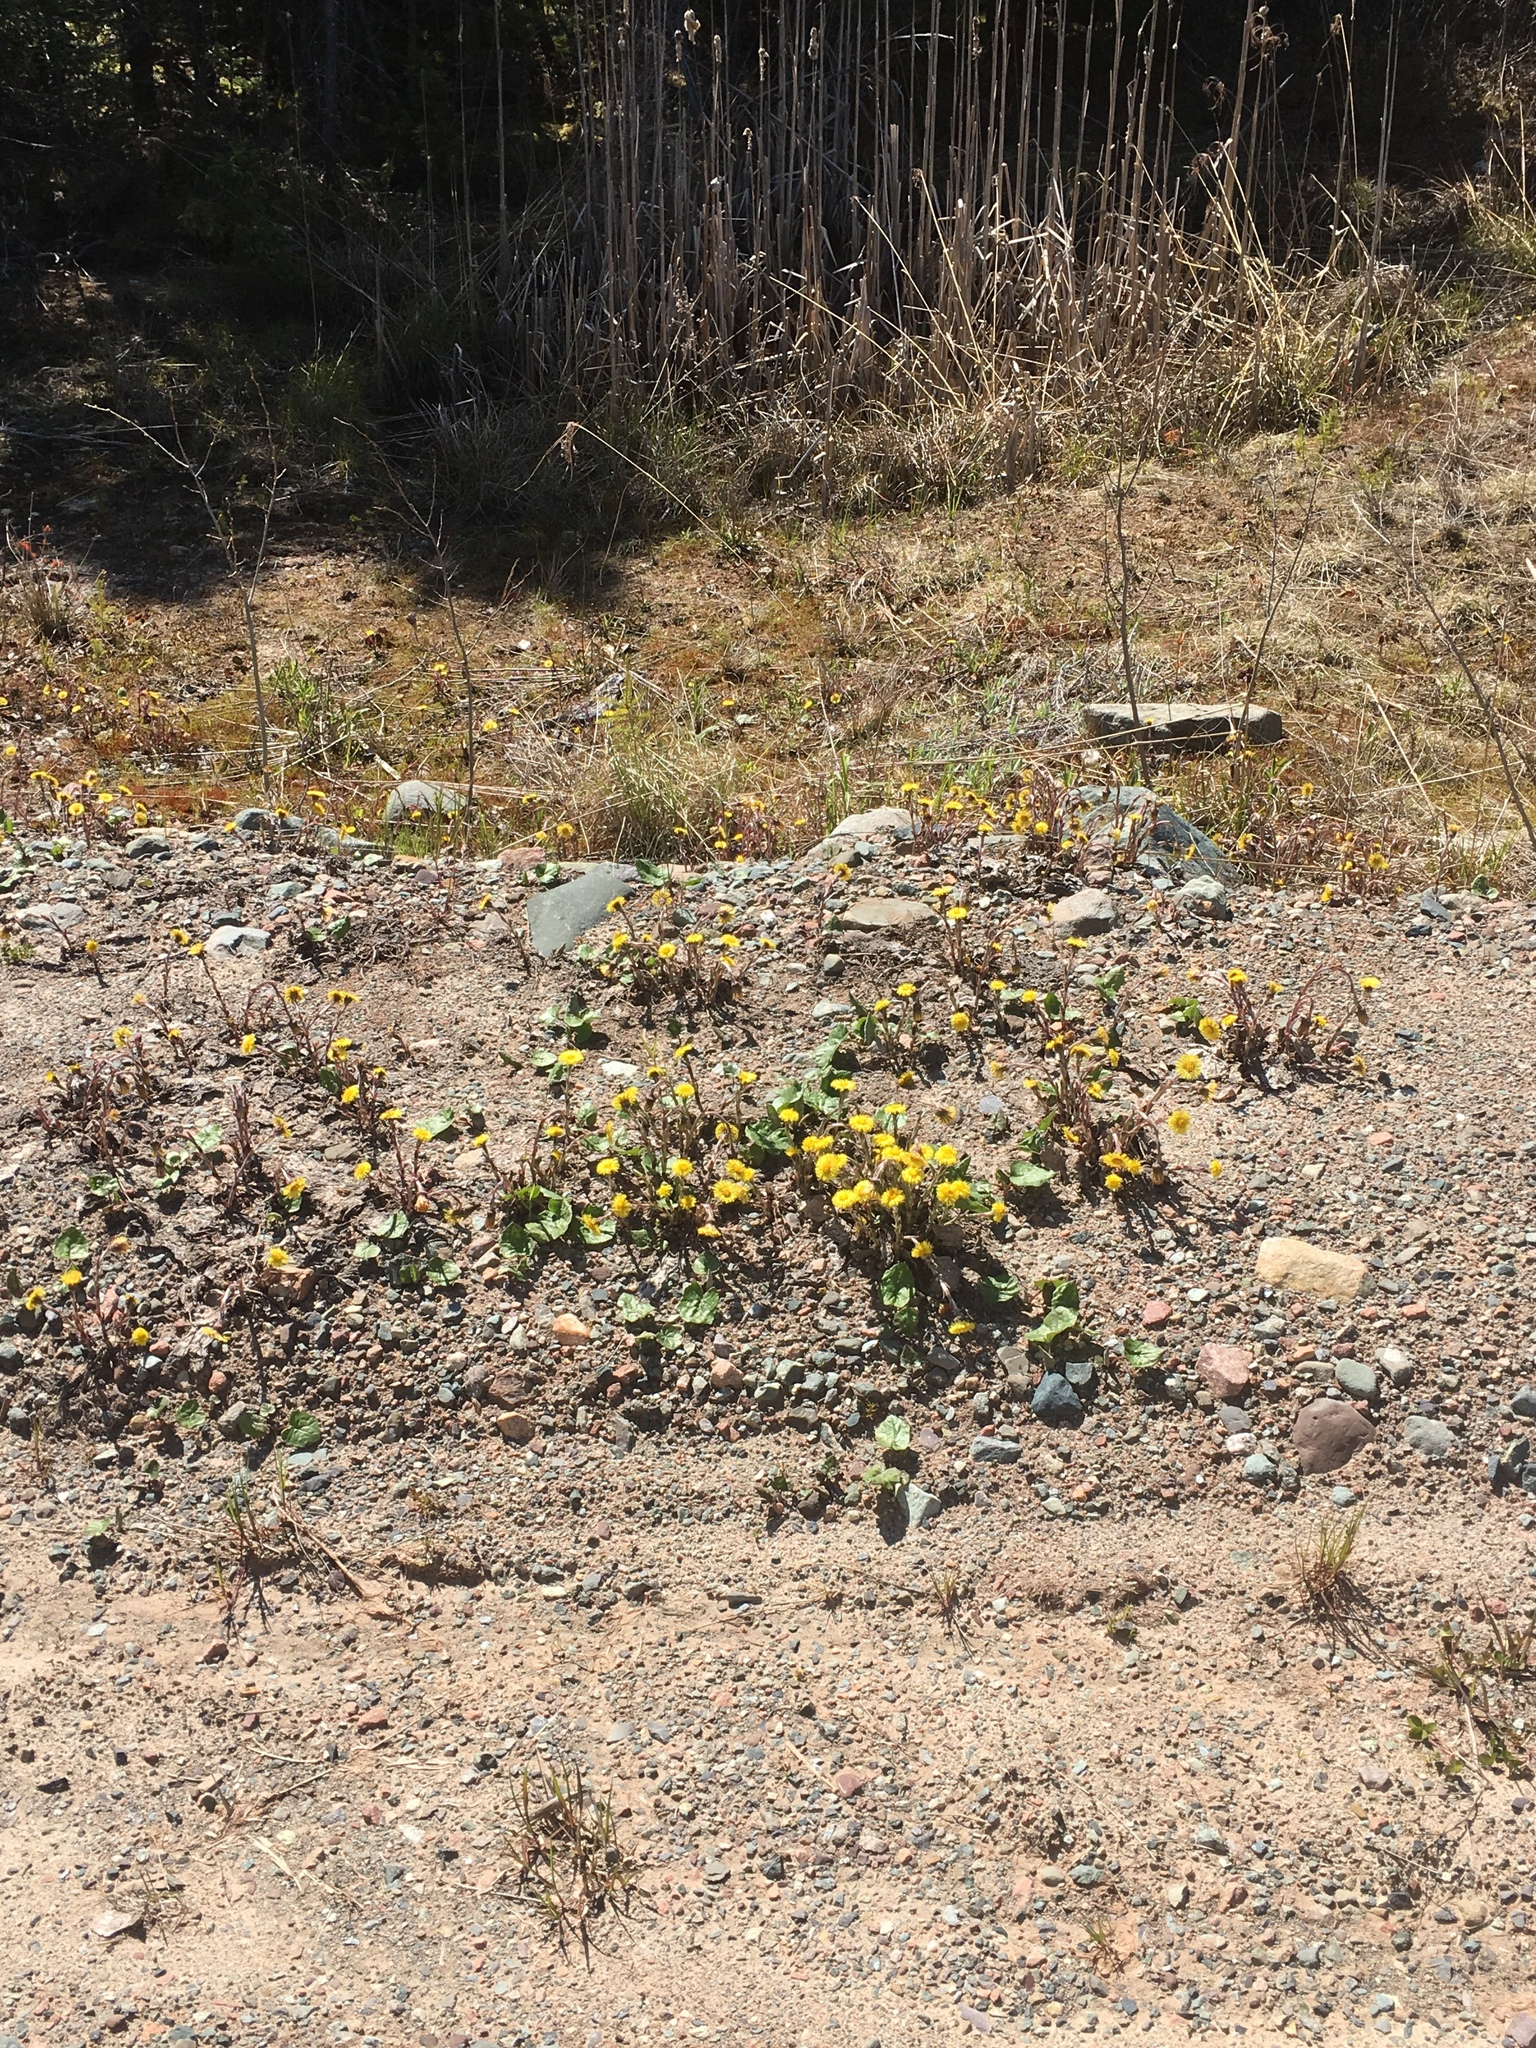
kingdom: Plantae
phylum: Tracheophyta
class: Magnoliopsida
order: Asterales
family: Asteraceae
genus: Tussilago
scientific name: Tussilago farfara
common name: Coltsfoot
